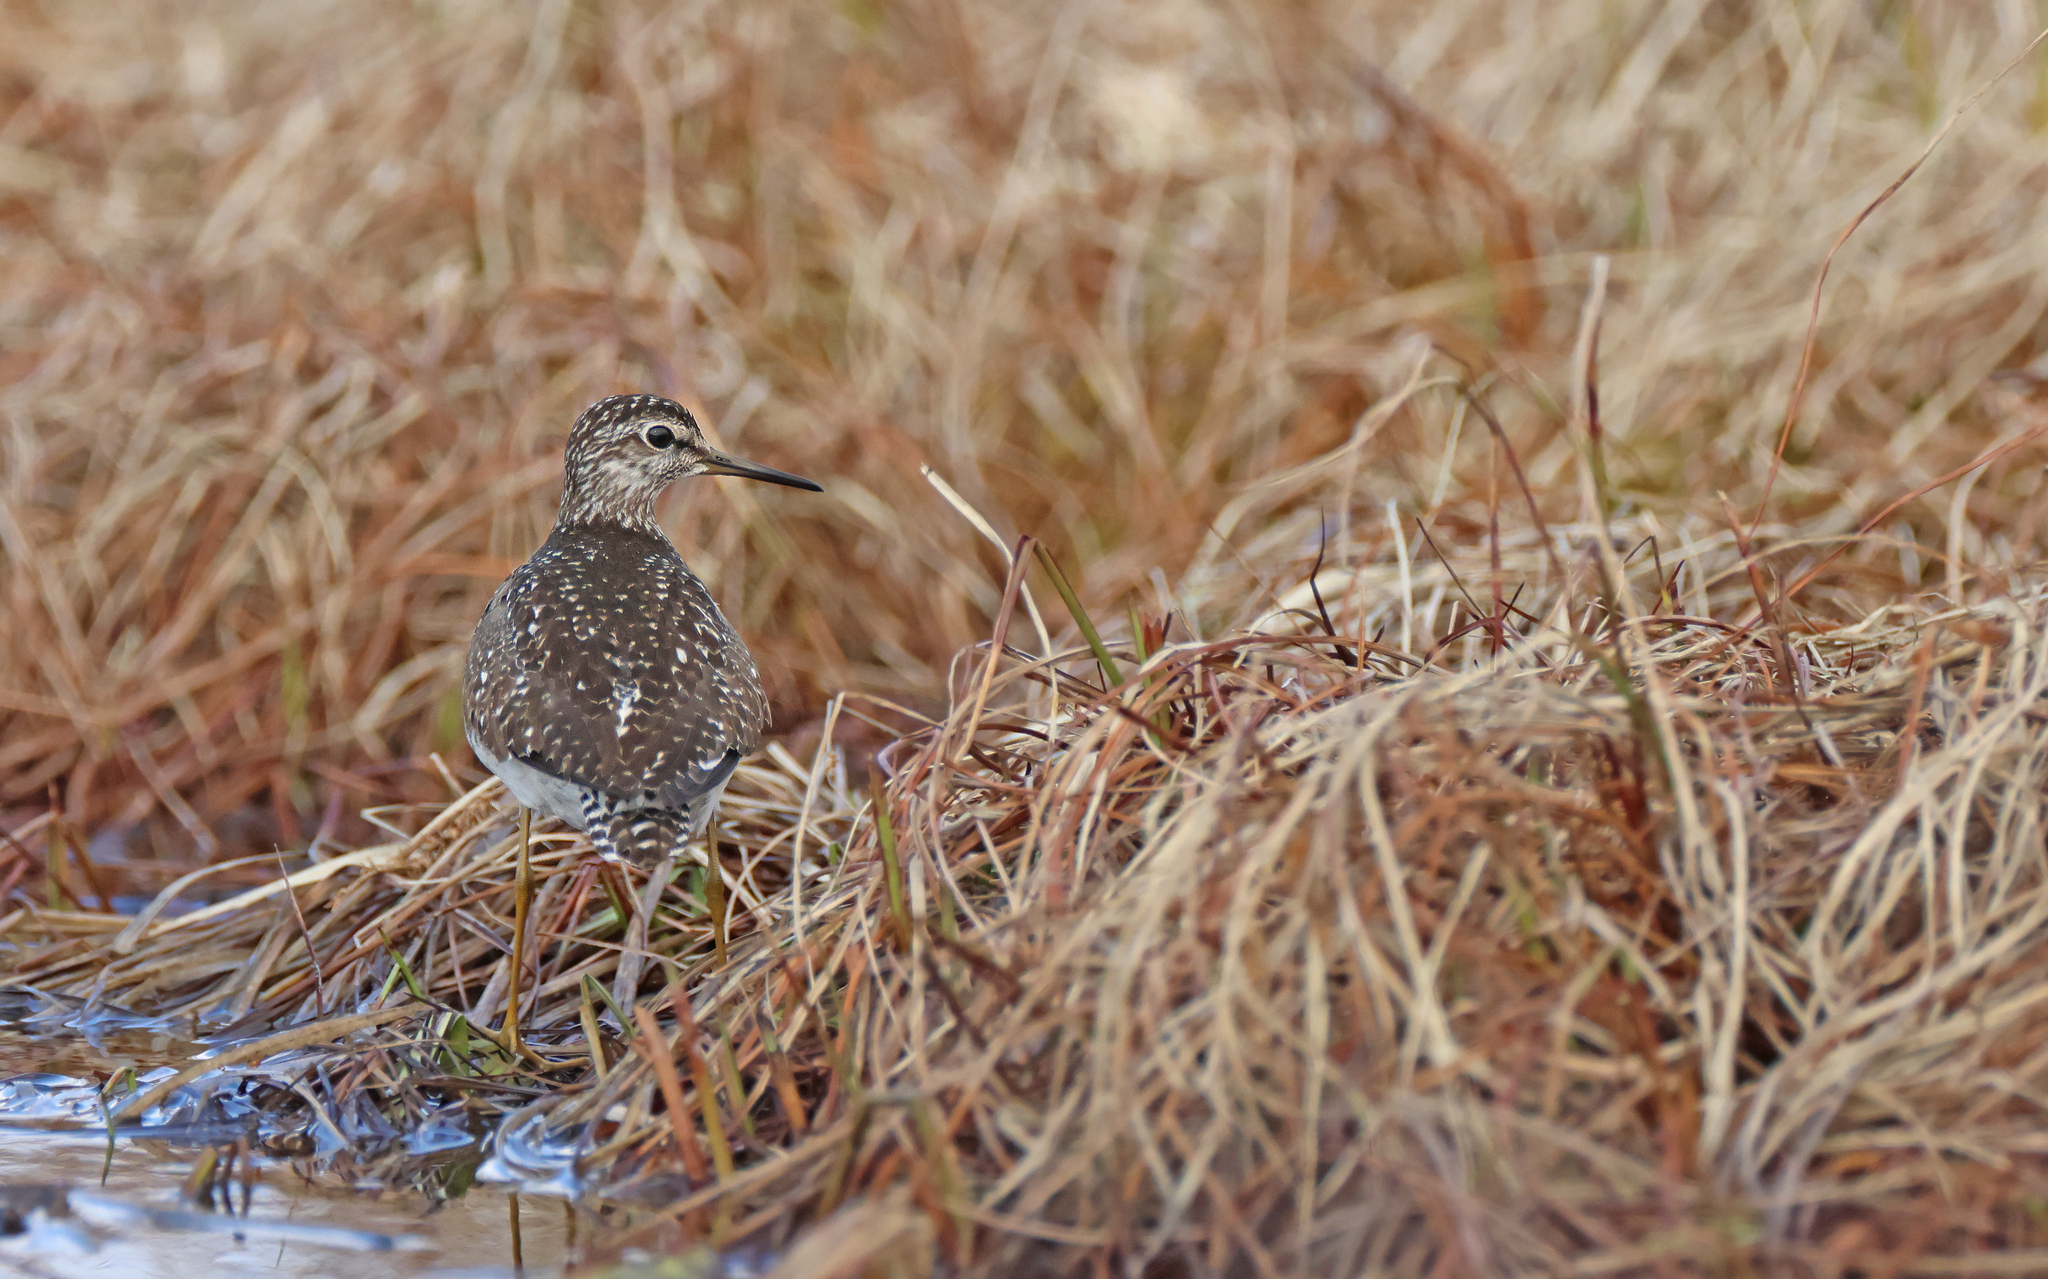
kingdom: Animalia
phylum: Chordata
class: Aves
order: Charadriiformes
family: Scolopacidae
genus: Tringa
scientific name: Tringa glareola
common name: Wood sandpiper
